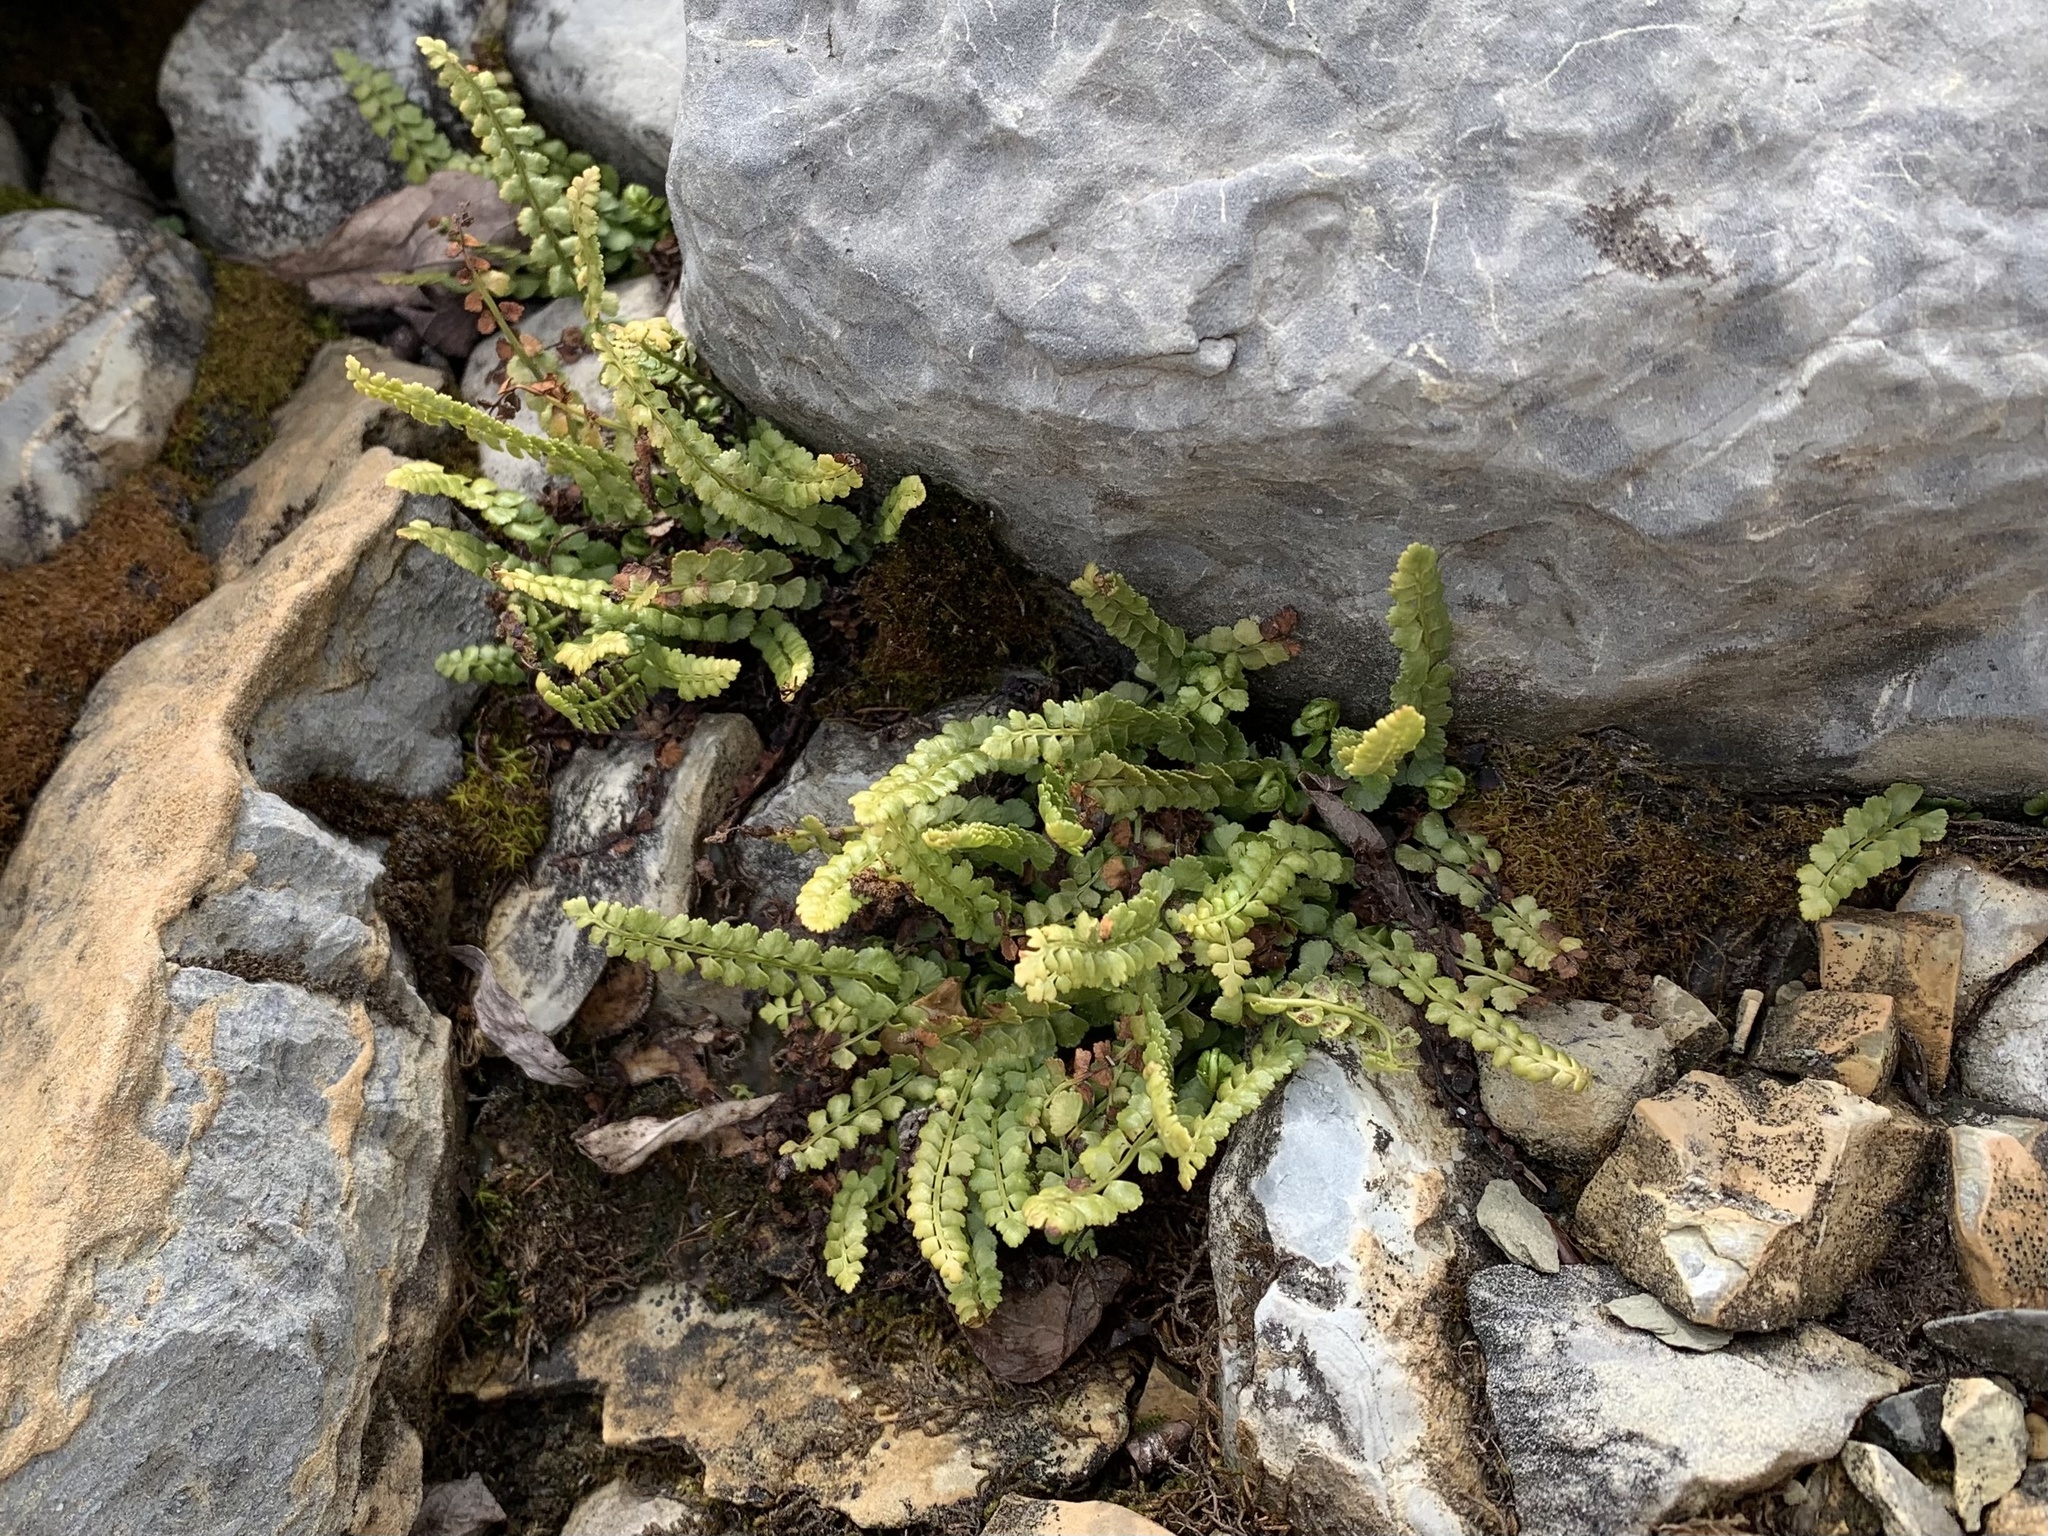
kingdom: Plantae
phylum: Tracheophyta
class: Polypodiopsida
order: Polypodiales
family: Aspleniaceae
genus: Asplenium
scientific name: Asplenium viride
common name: Green spleenwort
